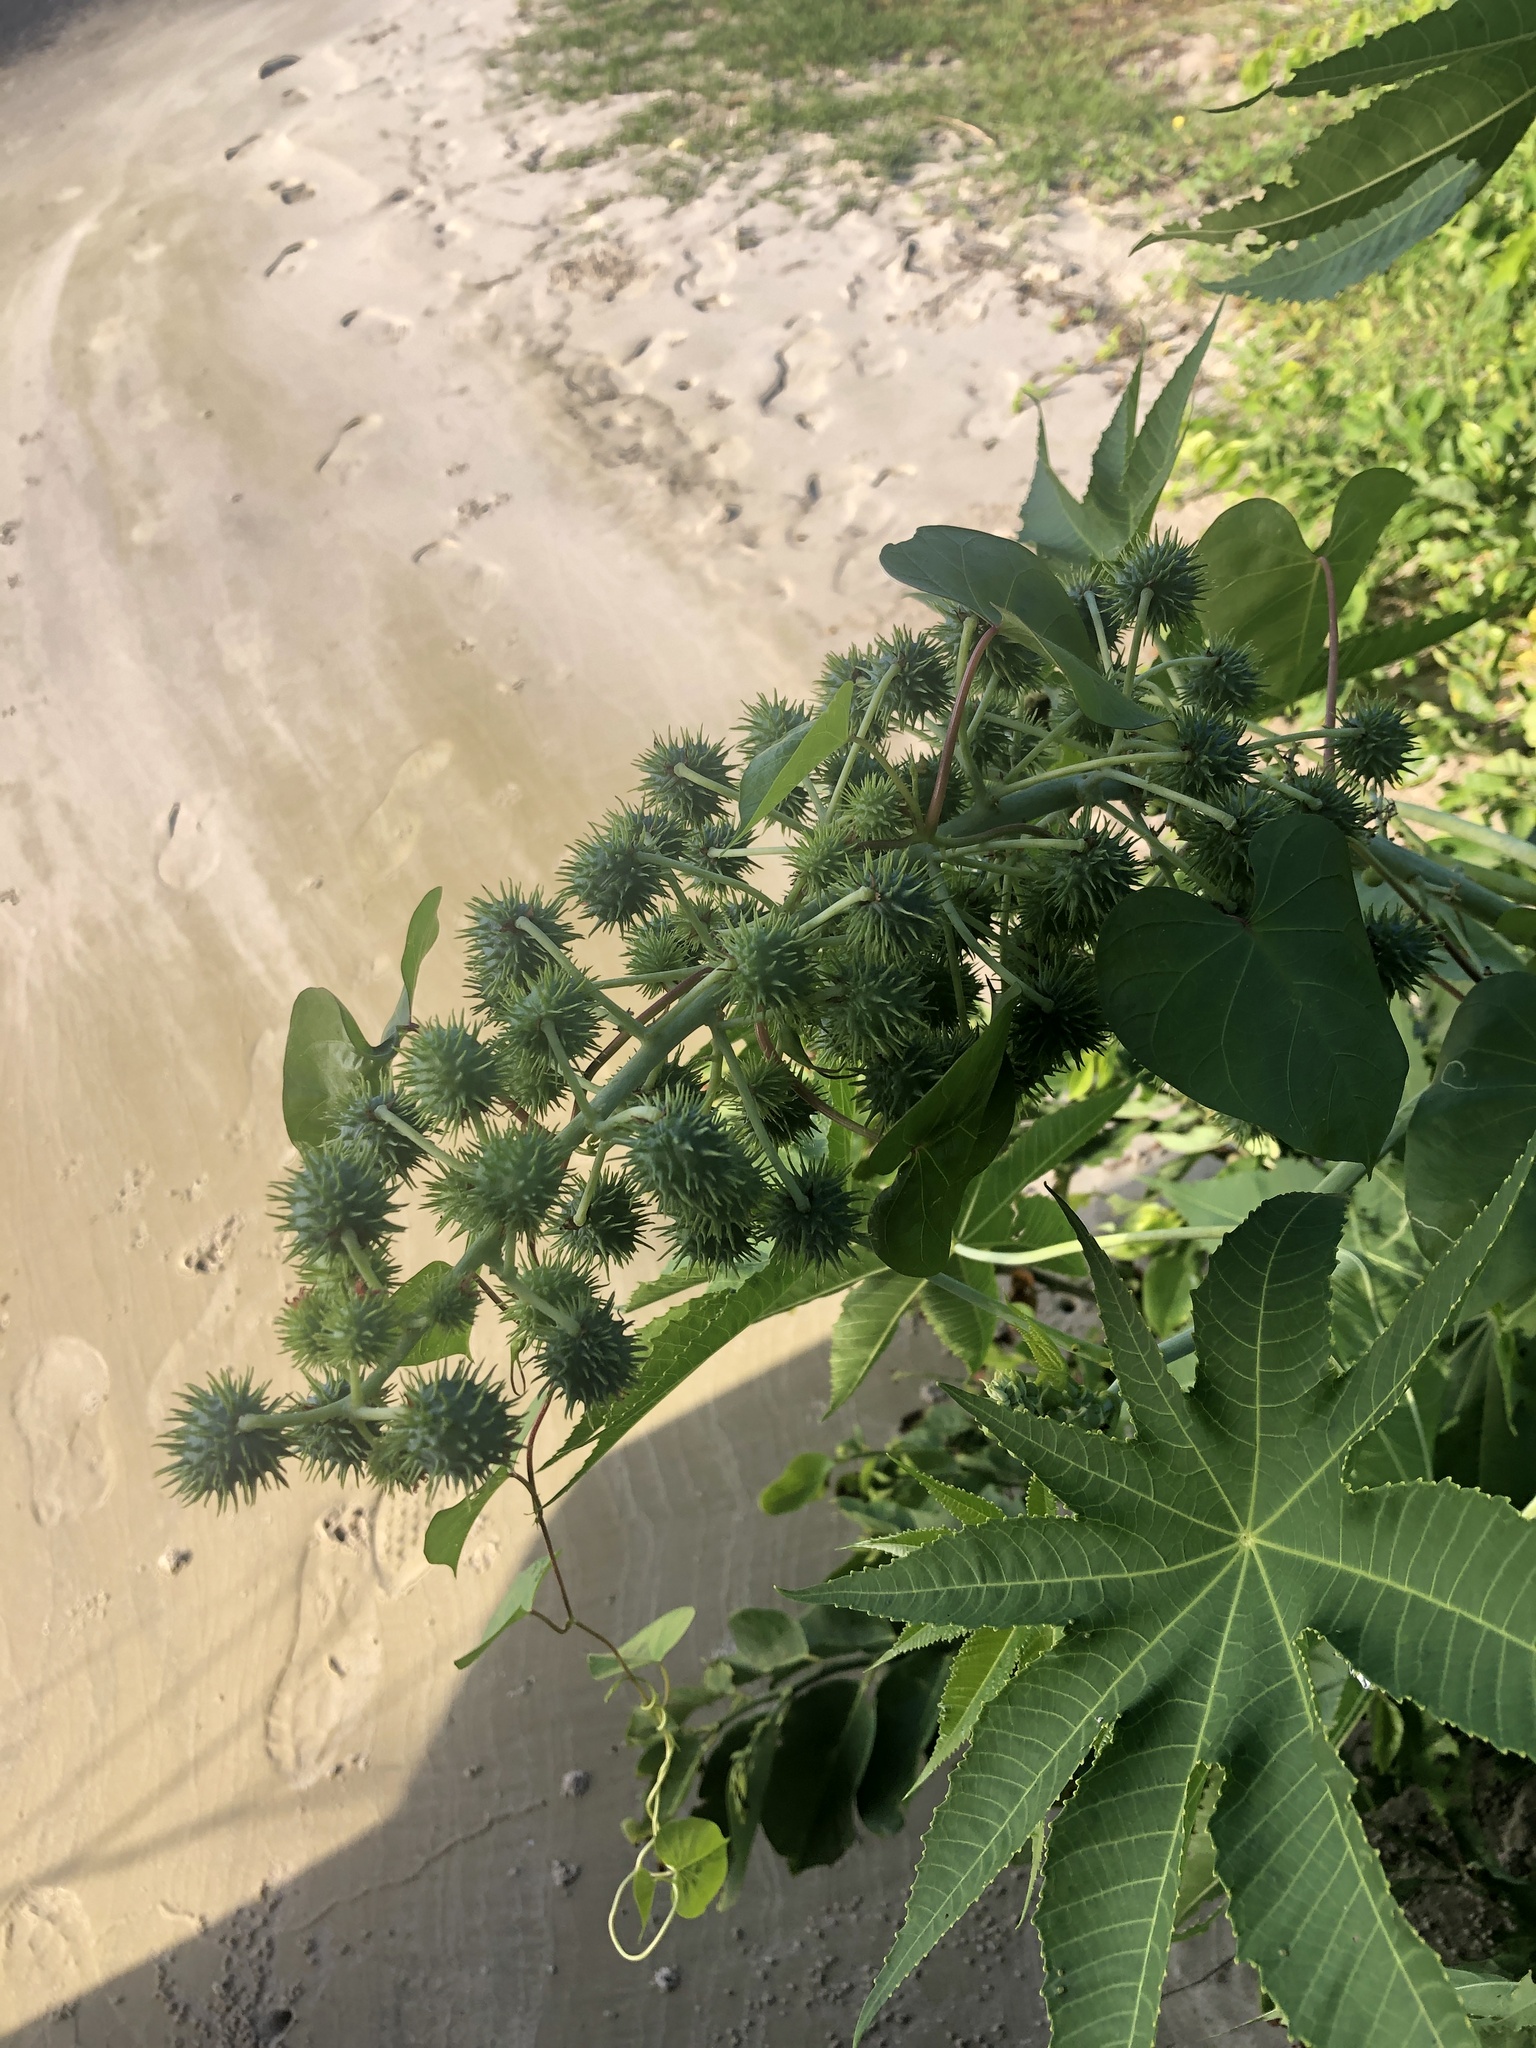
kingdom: Plantae
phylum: Tracheophyta
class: Magnoliopsida
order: Malpighiales
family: Euphorbiaceae
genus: Ricinus
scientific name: Ricinus communis
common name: Castor-oil-plant
